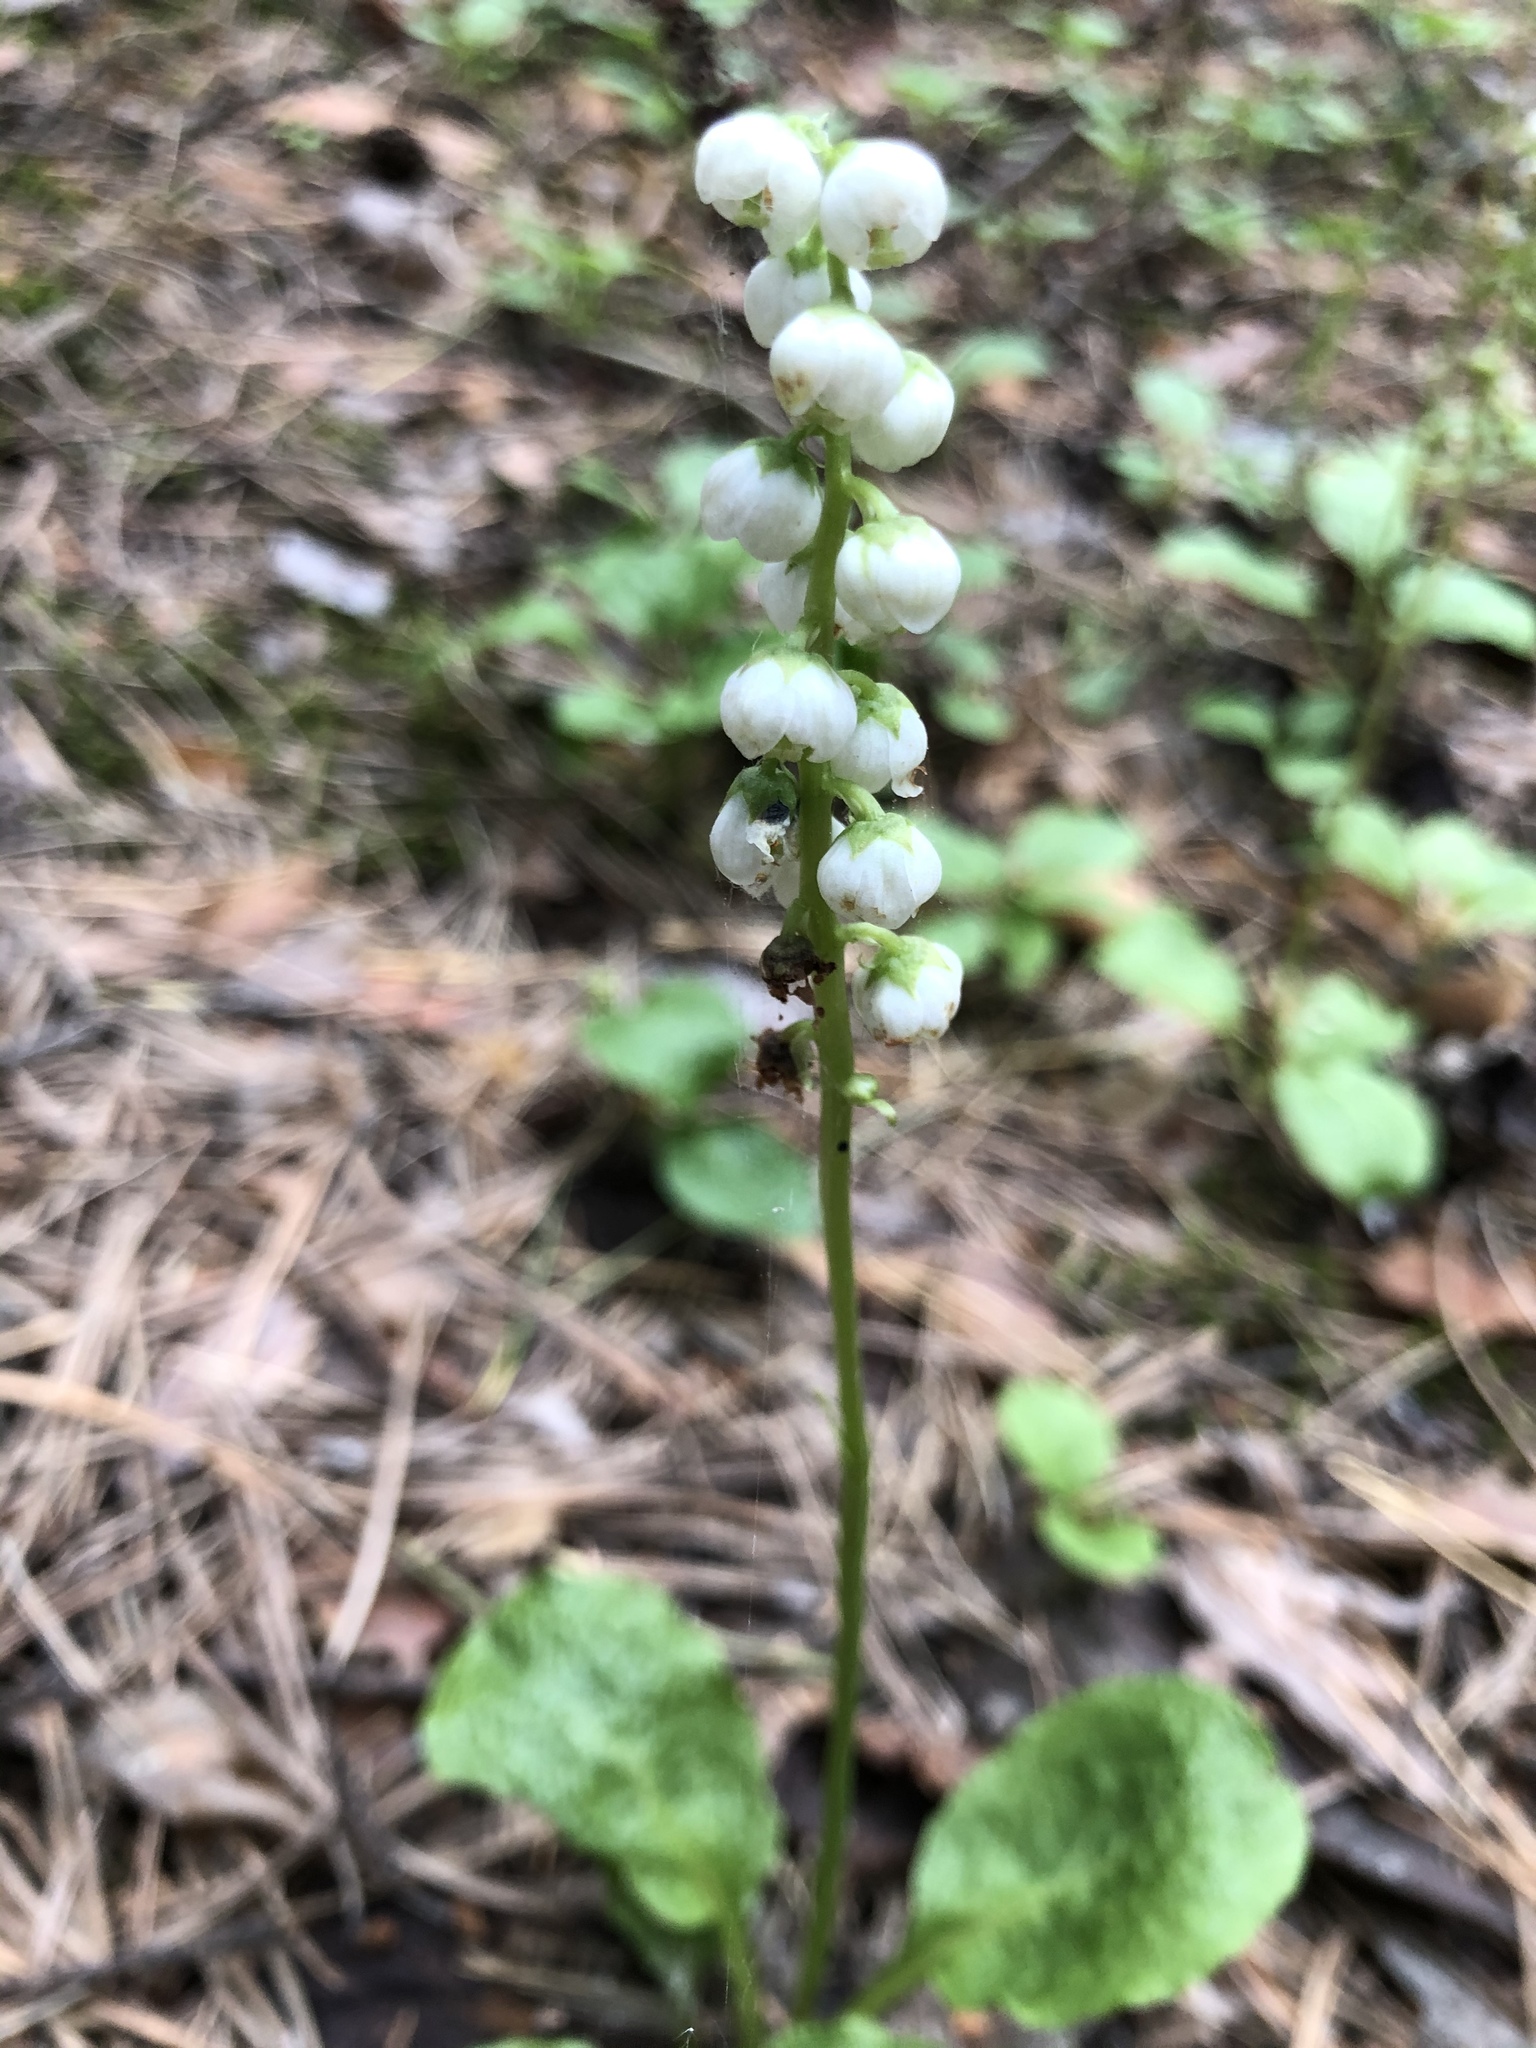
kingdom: Plantae
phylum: Tracheophyta
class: Magnoliopsida
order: Ericales
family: Ericaceae
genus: Pyrola
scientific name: Pyrola minor
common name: Common wintergreen
